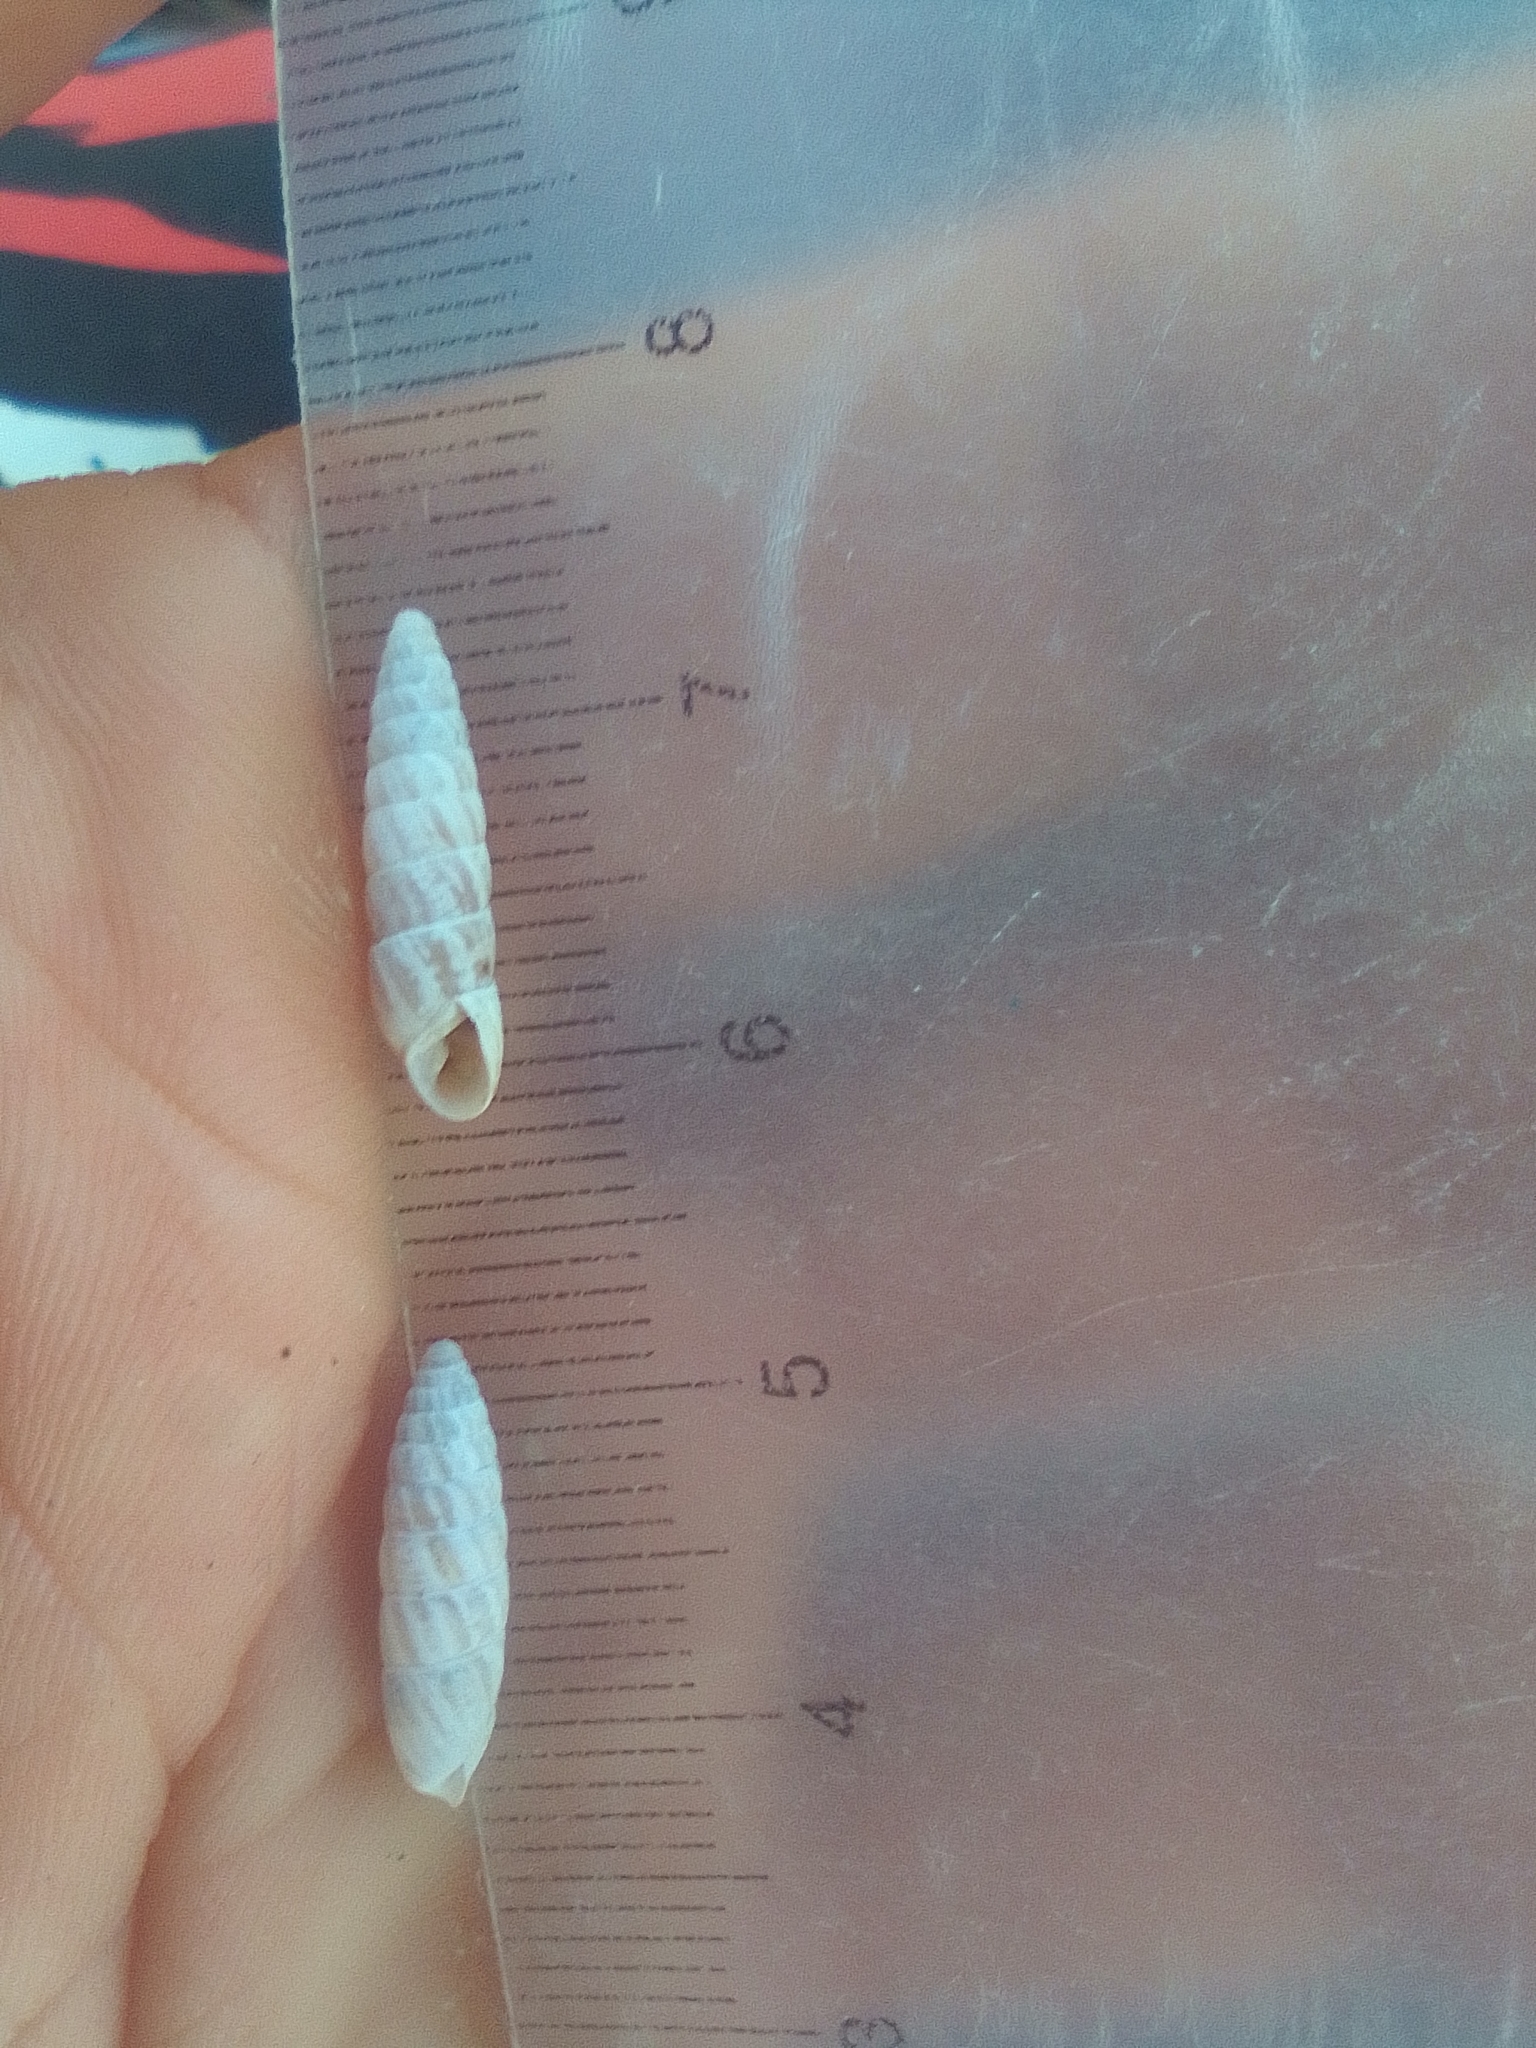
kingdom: Animalia
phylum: Mollusca
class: Gastropoda
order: Stylommatophora
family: Enidae
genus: Brephulopsis
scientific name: Brephulopsis bidens
